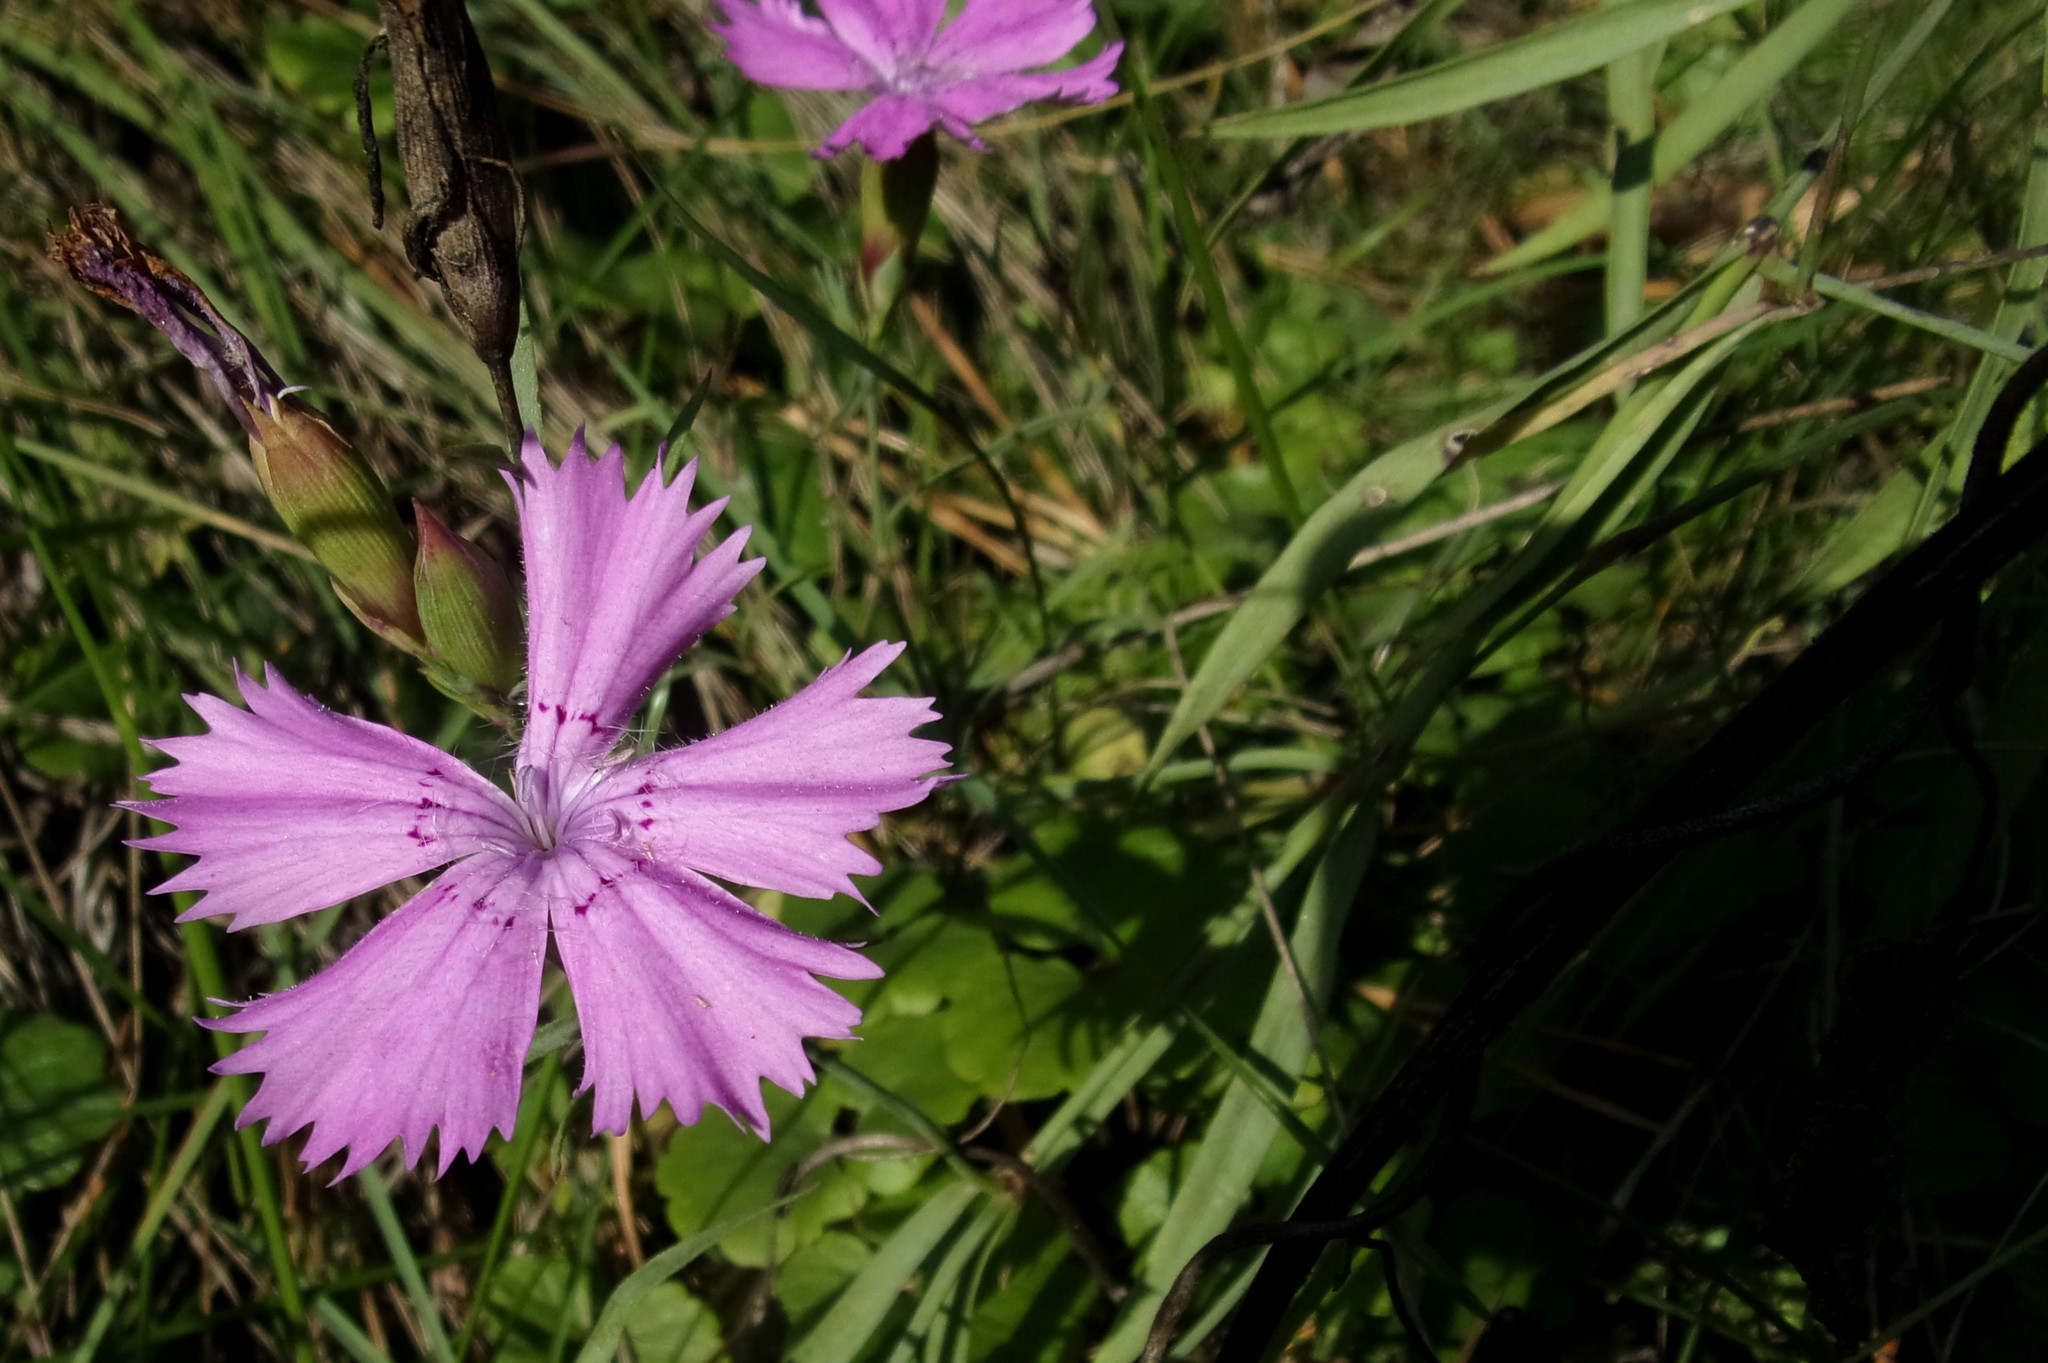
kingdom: Plantae
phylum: Tracheophyta
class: Magnoliopsida
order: Caryophyllales
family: Caryophyllaceae
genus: Dianthus
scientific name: Dianthus chinensis
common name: Rainbow pink
